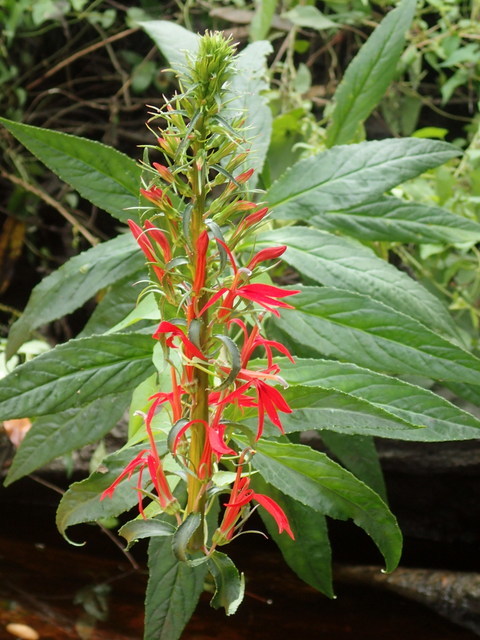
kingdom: Plantae
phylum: Tracheophyta
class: Magnoliopsida
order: Asterales
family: Campanulaceae
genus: Lobelia
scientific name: Lobelia cardinalis
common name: Cardinal flower
